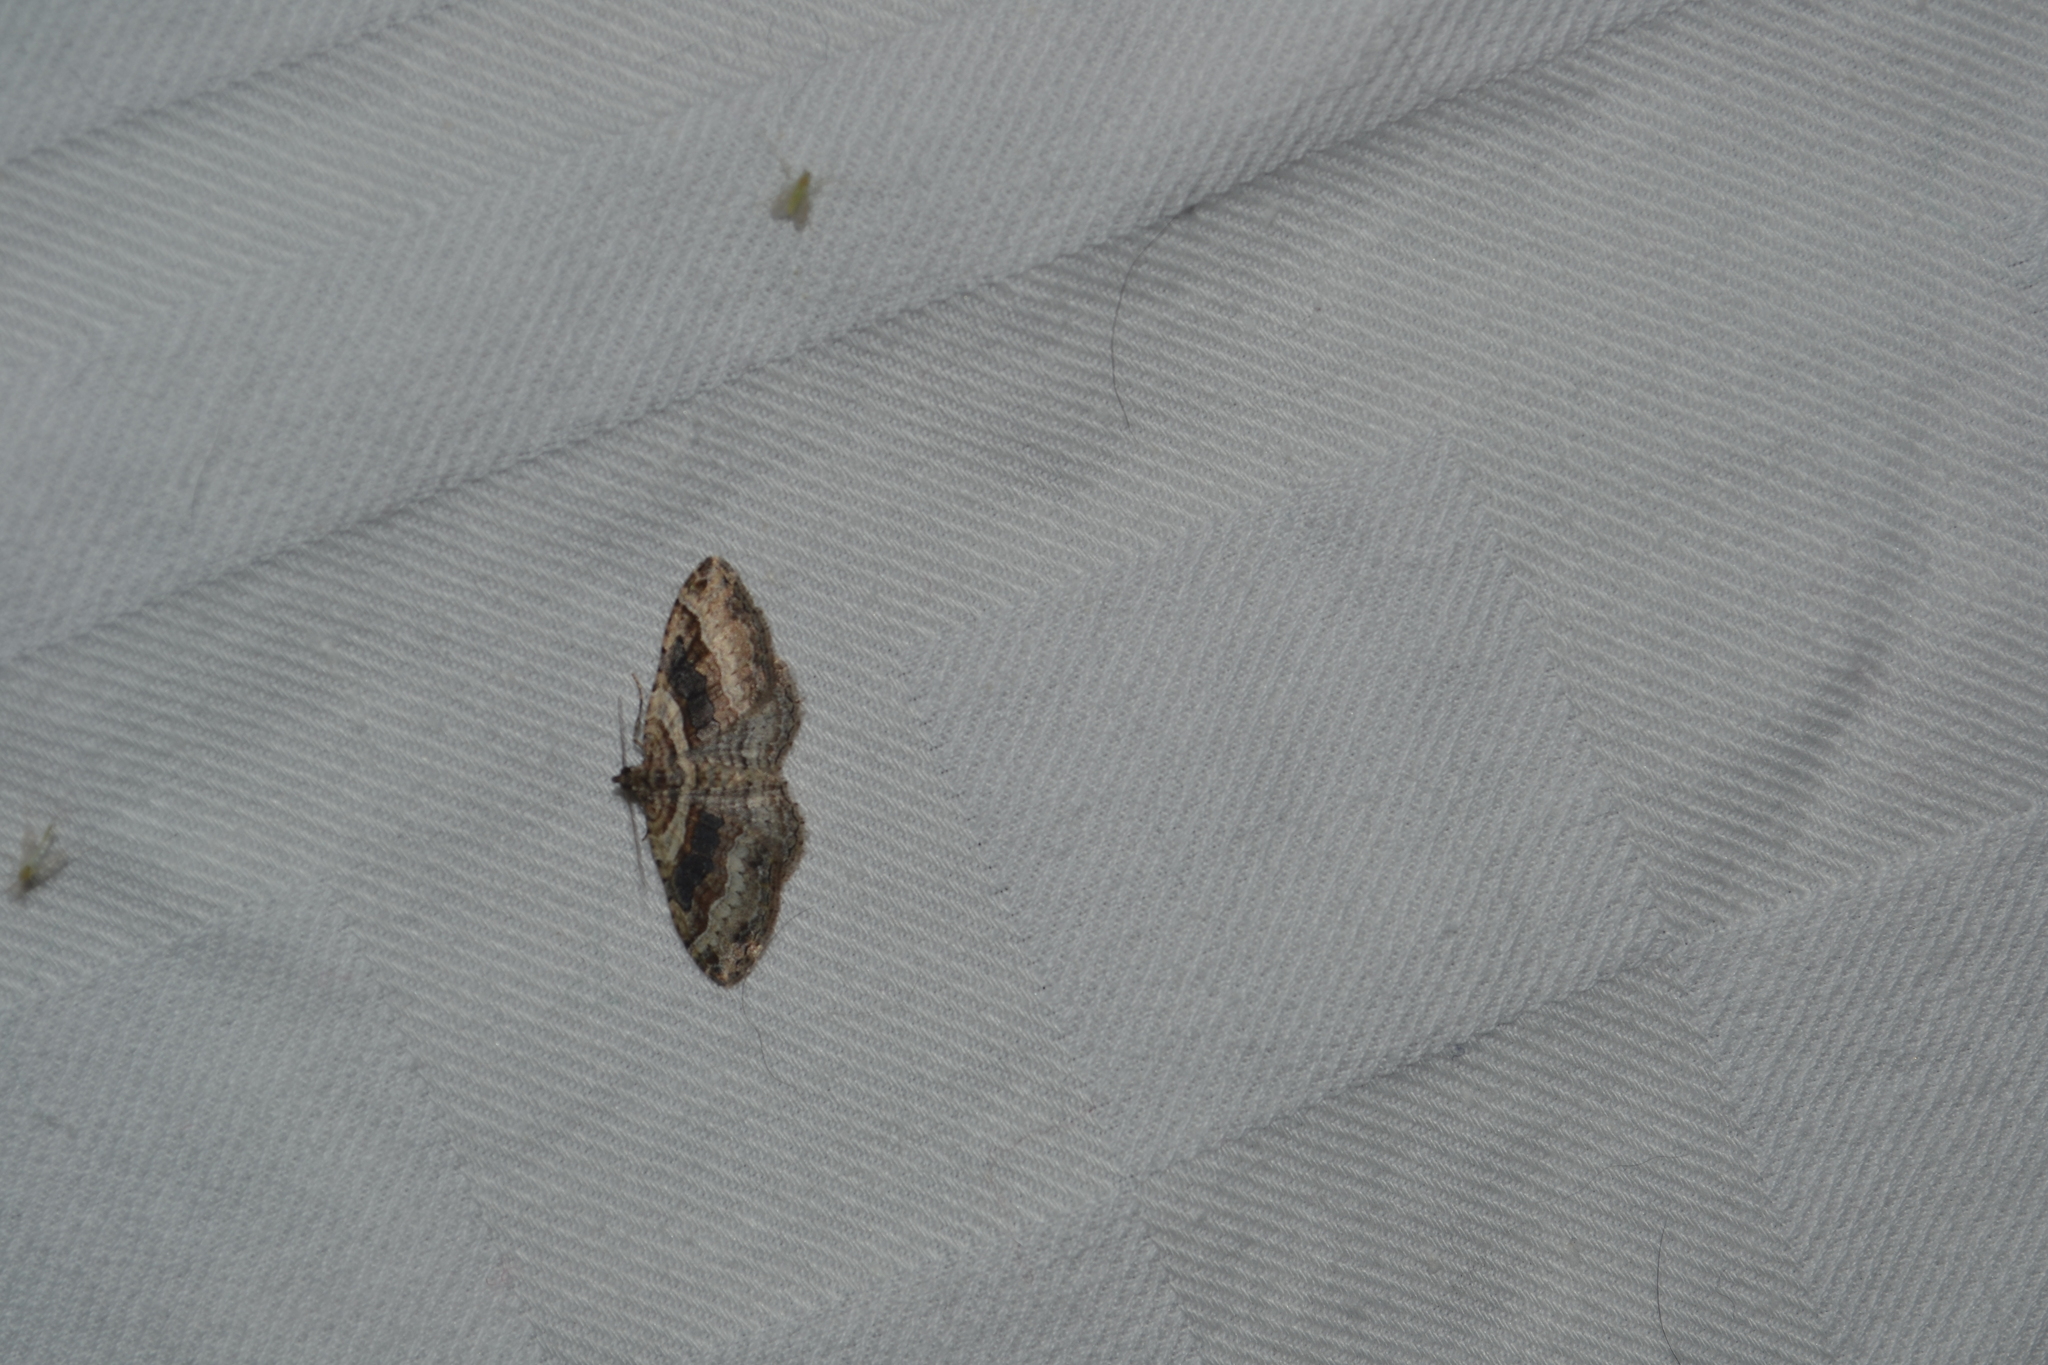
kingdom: Animalia
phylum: Arthropoda
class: Insecta
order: Lepidoptera
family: Geometridae
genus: Costaconvexa
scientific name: Costaconvexa centrostrigaria
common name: Bent-line carpet
